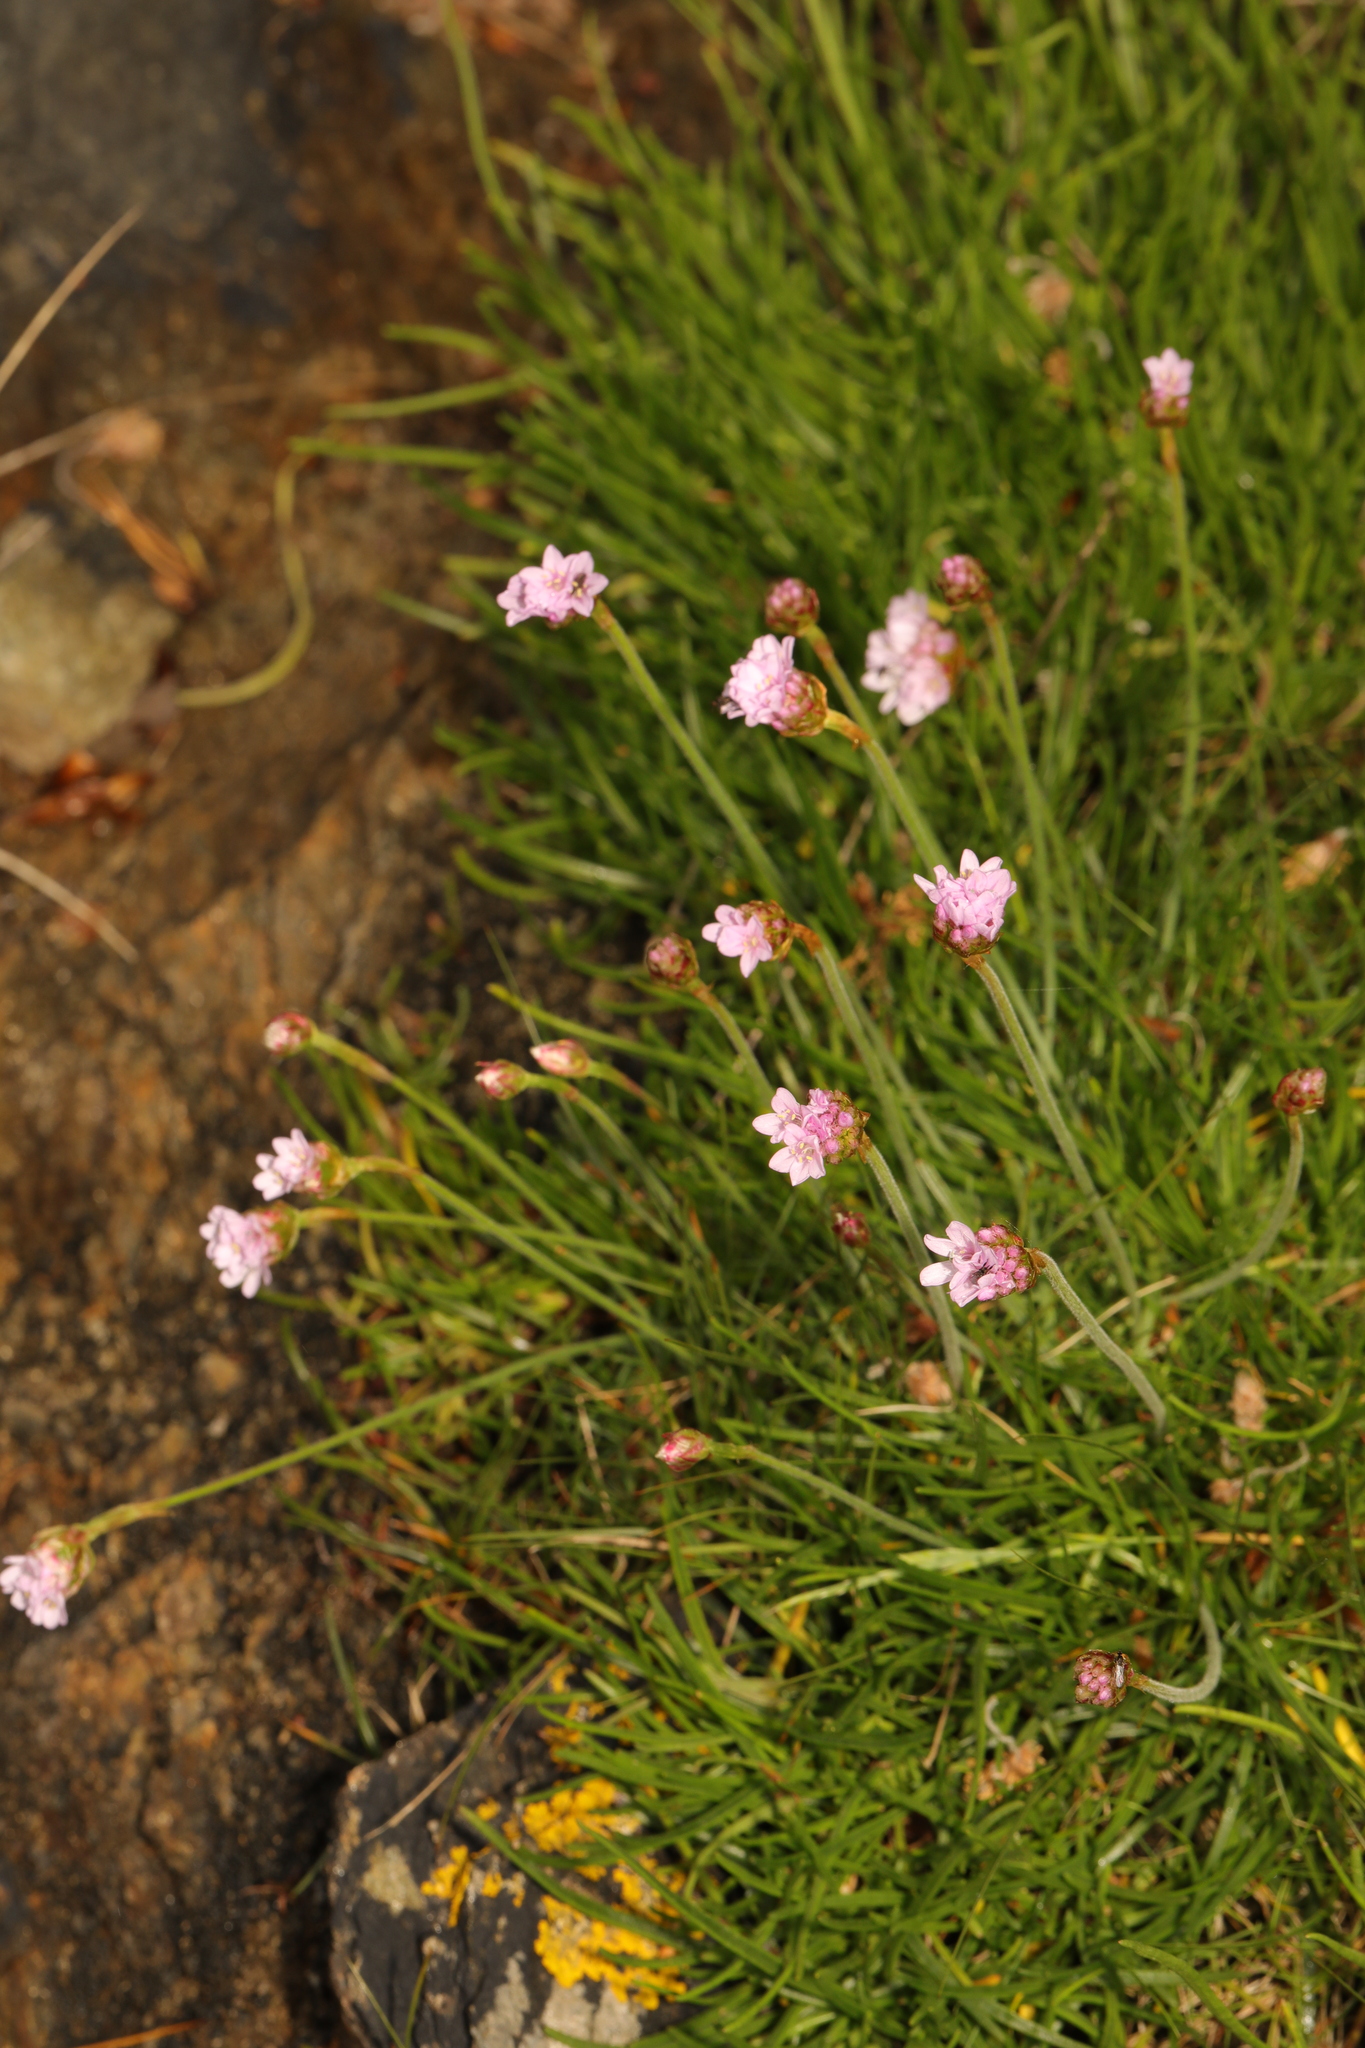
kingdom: Plantae
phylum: Tracheophyta
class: Magnoliopsida
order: Caryophyllales
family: Plumbaginaceae
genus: Armeria
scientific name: Armeria maritima
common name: Thrift
